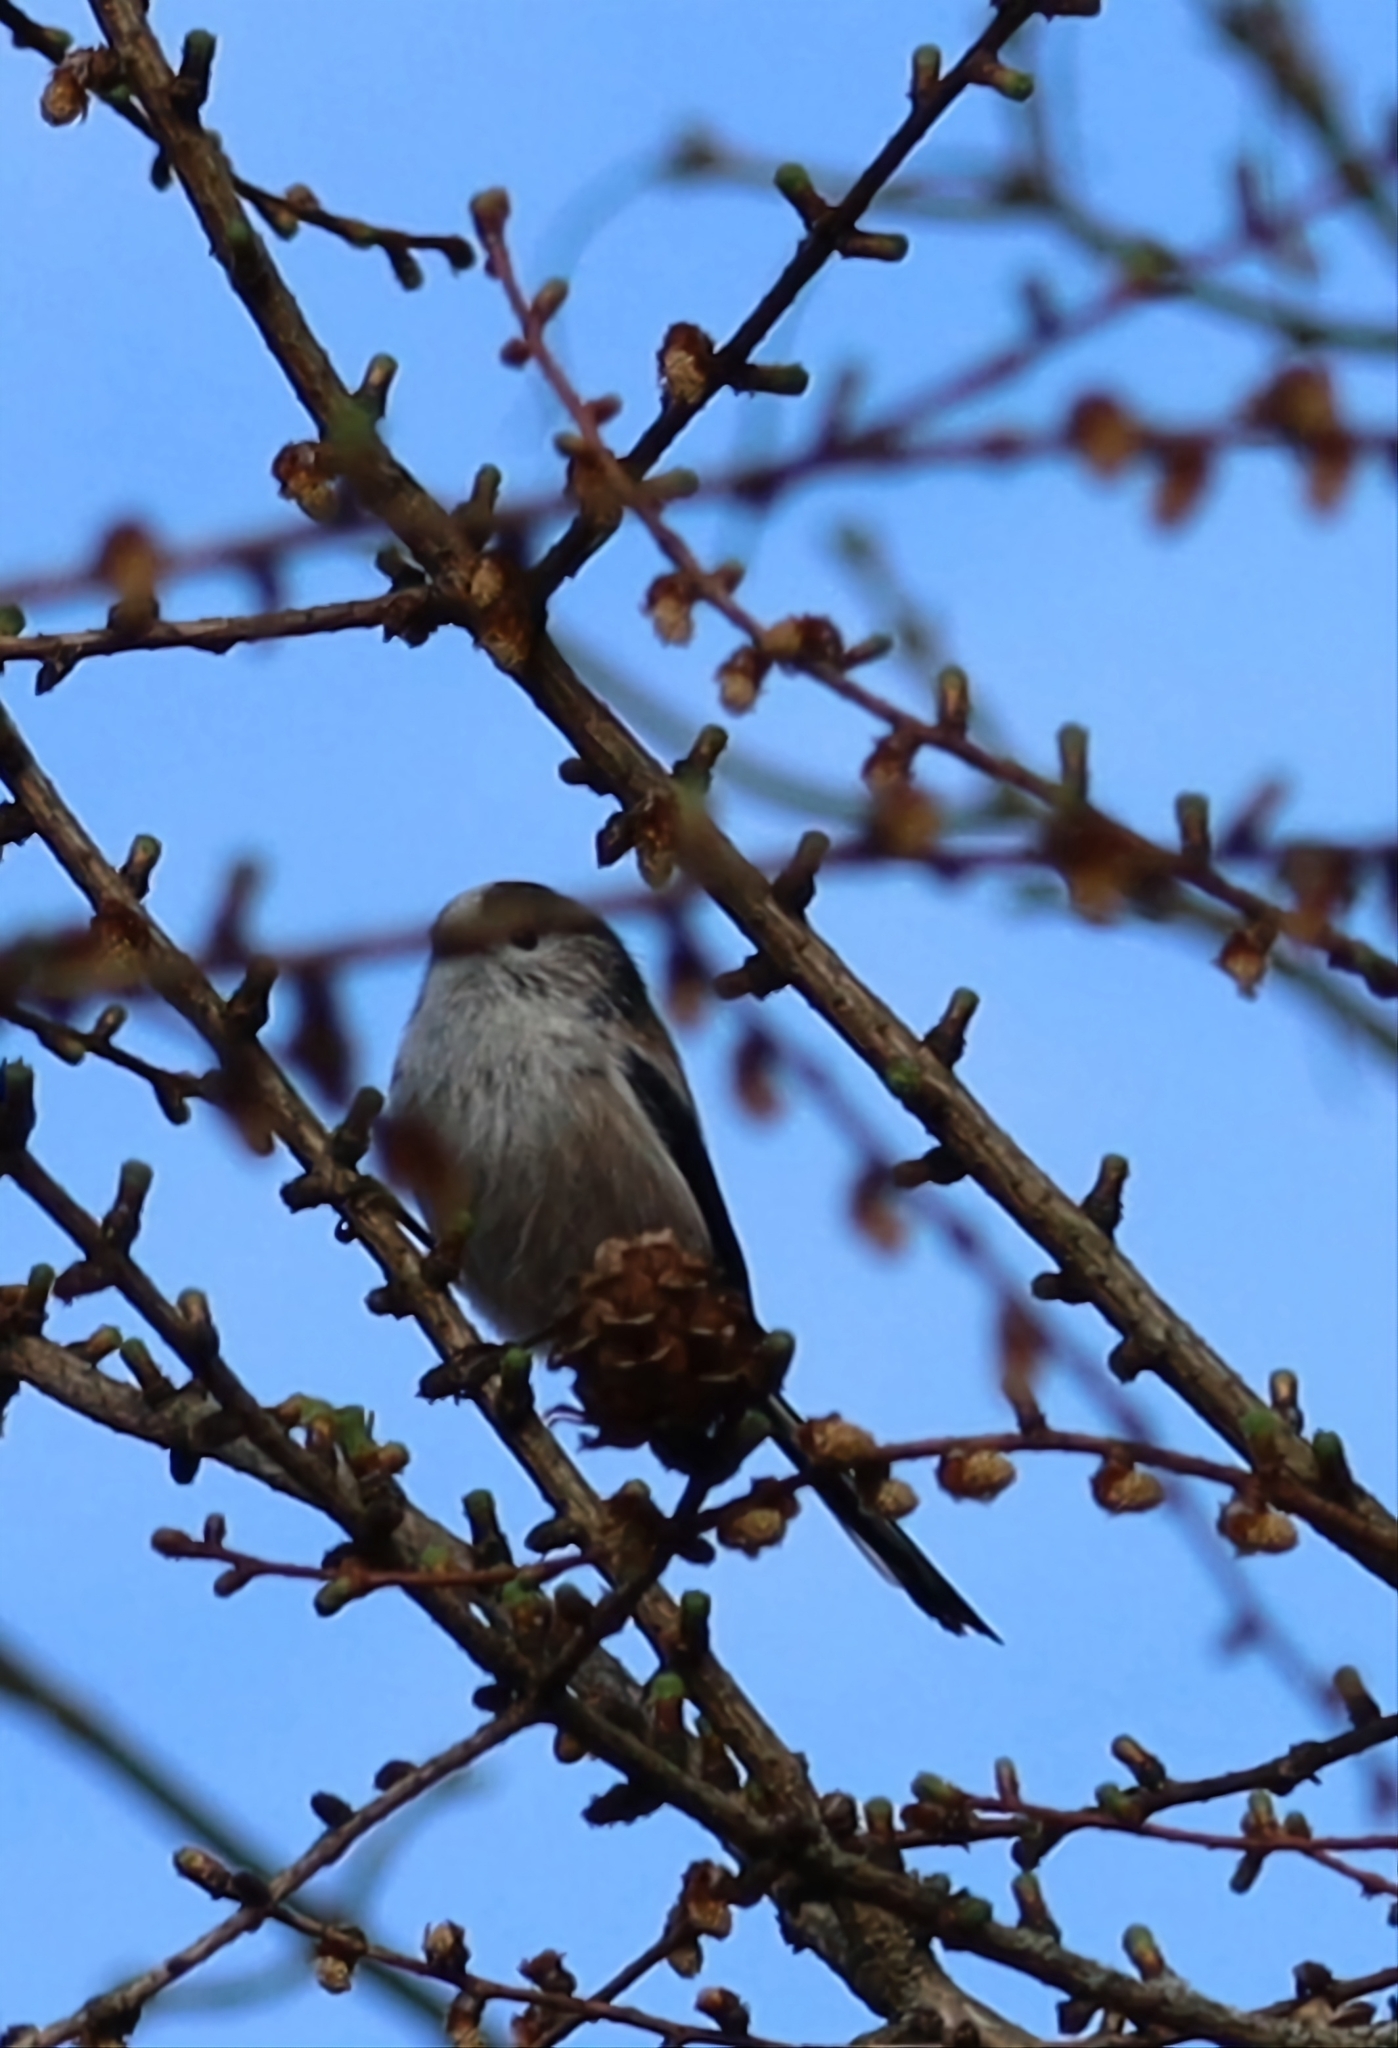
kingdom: Animalia
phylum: Chordata
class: Aves
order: Passeriformes
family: Aegithalidae
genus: Aegithalos
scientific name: Aegithalos caudatus
